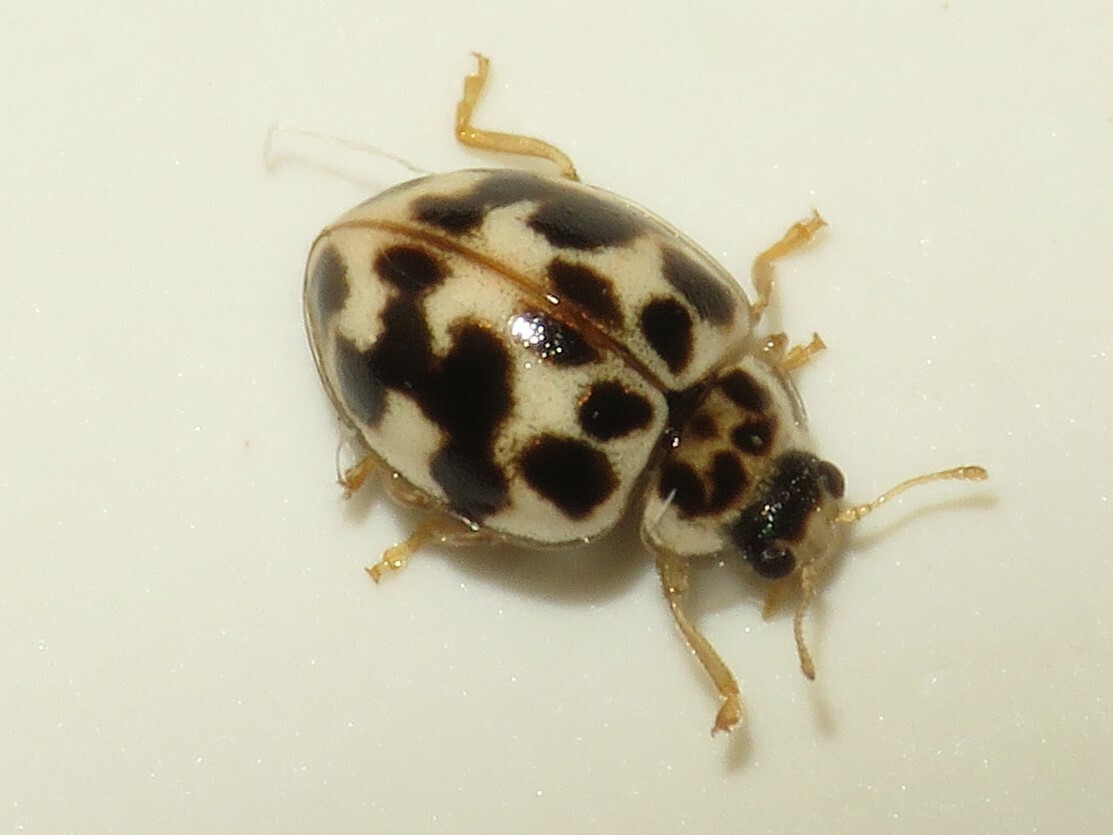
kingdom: Animalia
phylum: Arthropoda
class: Insecta
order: Coleoptera
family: Coccinellidae
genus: Psyllobora
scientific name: Psyllobora vigintimaculata
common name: Ladybird beetle
